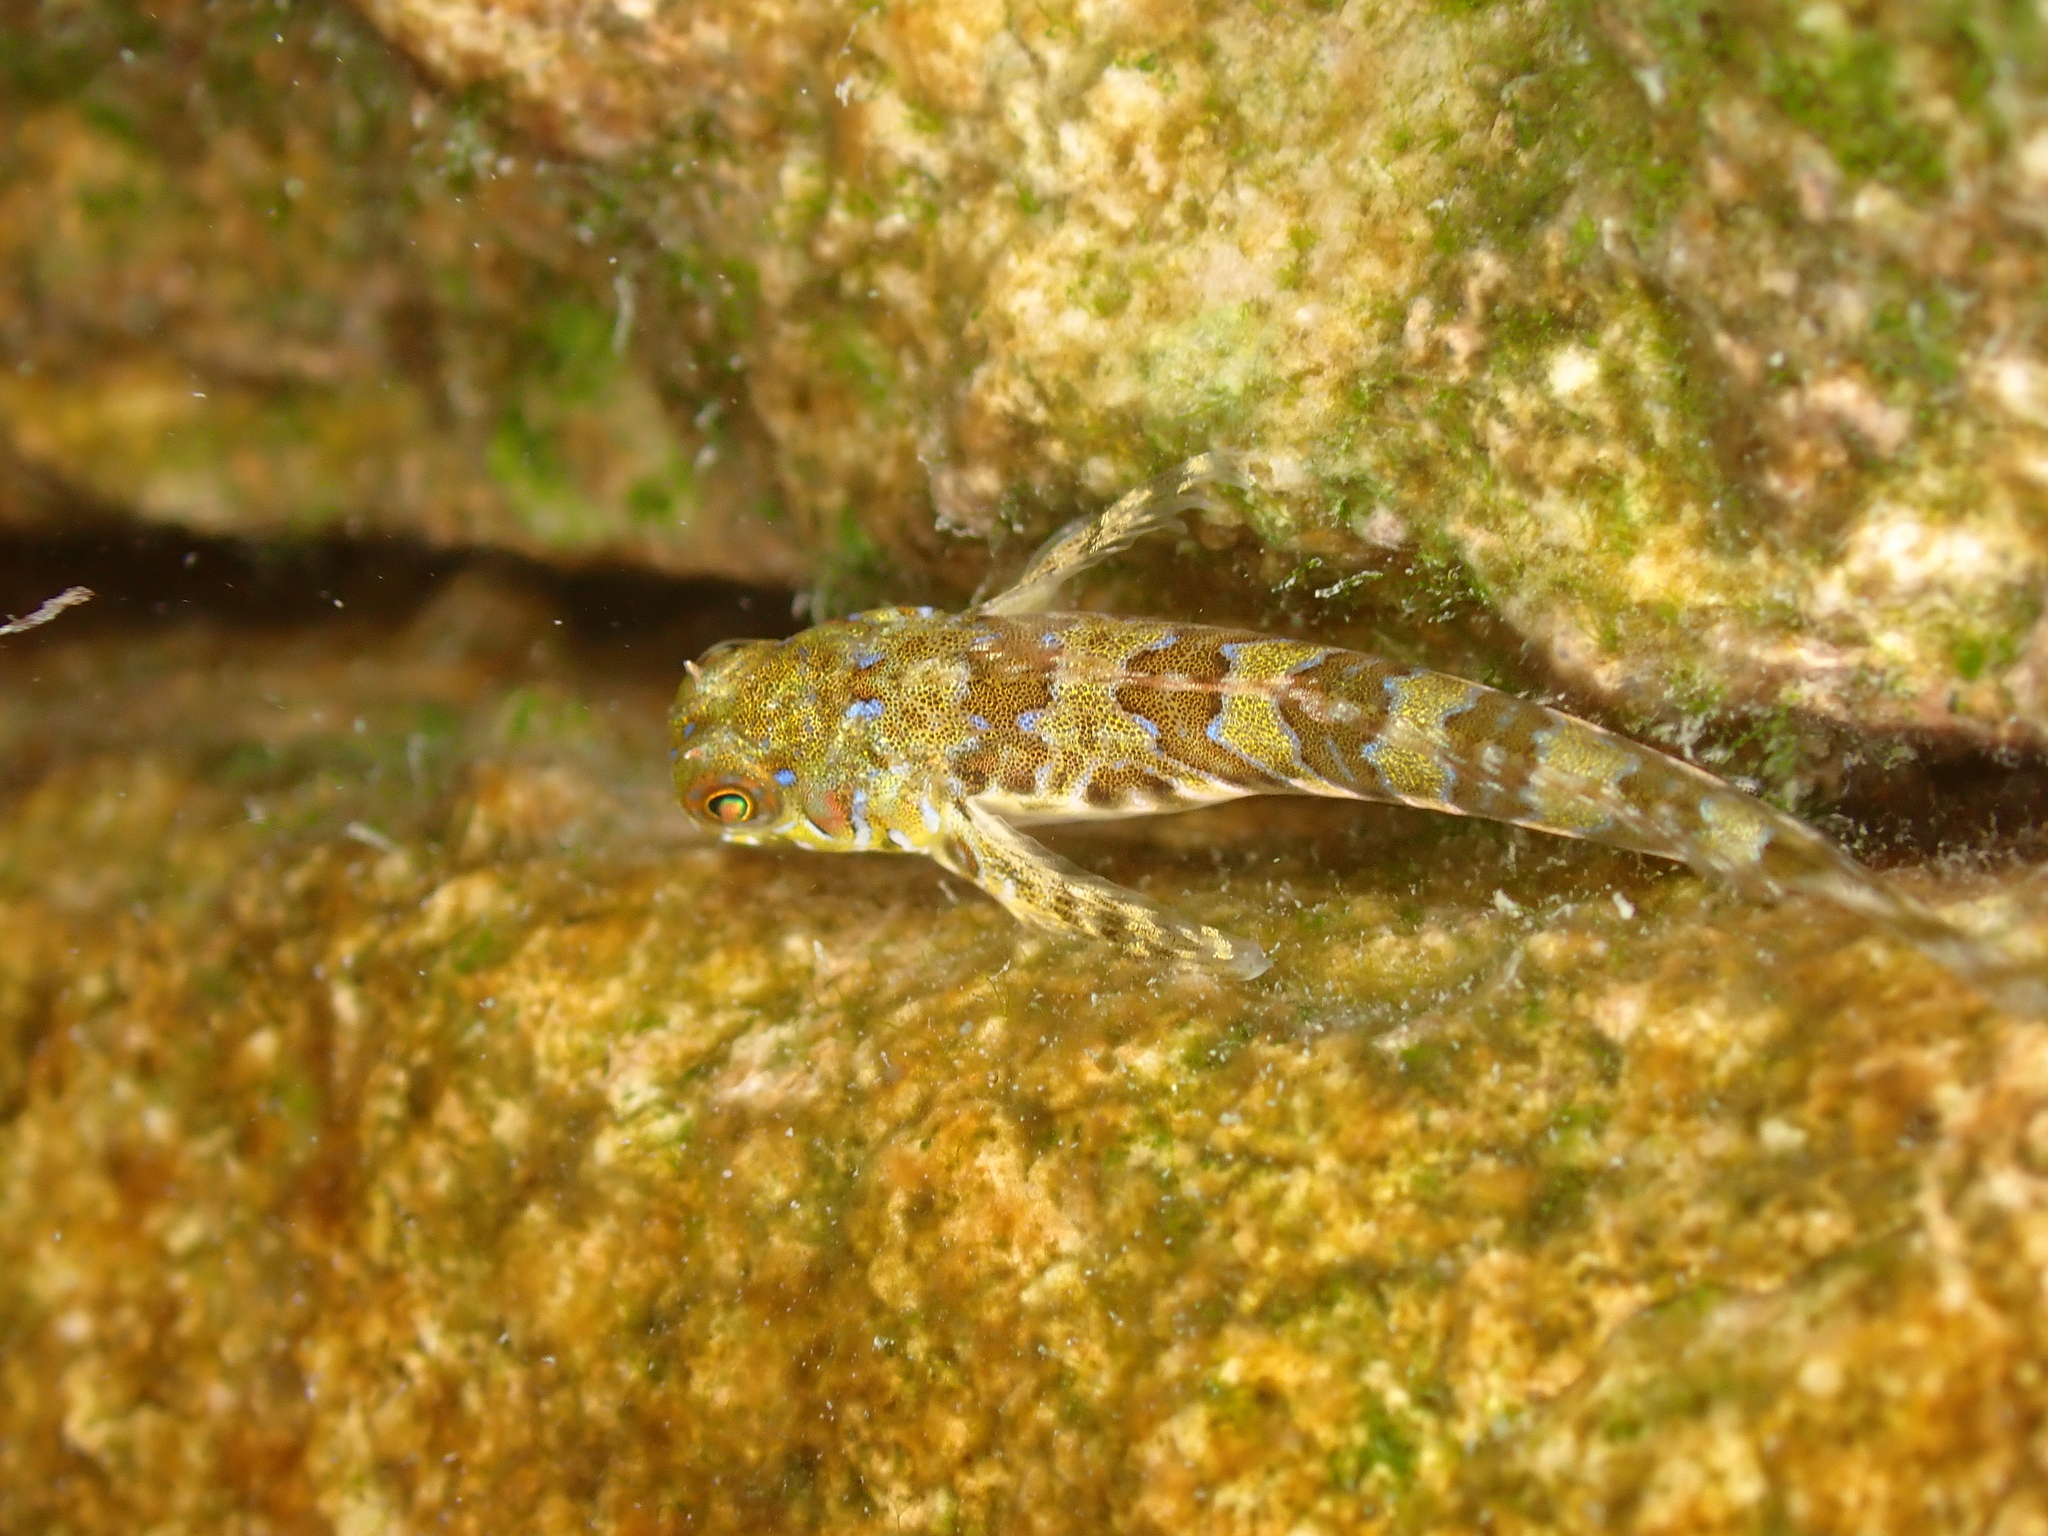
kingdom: Animalia
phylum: Chordata
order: Perciformes
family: Blenniidae
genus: Aidablennius
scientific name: Aidablennius sphynx
